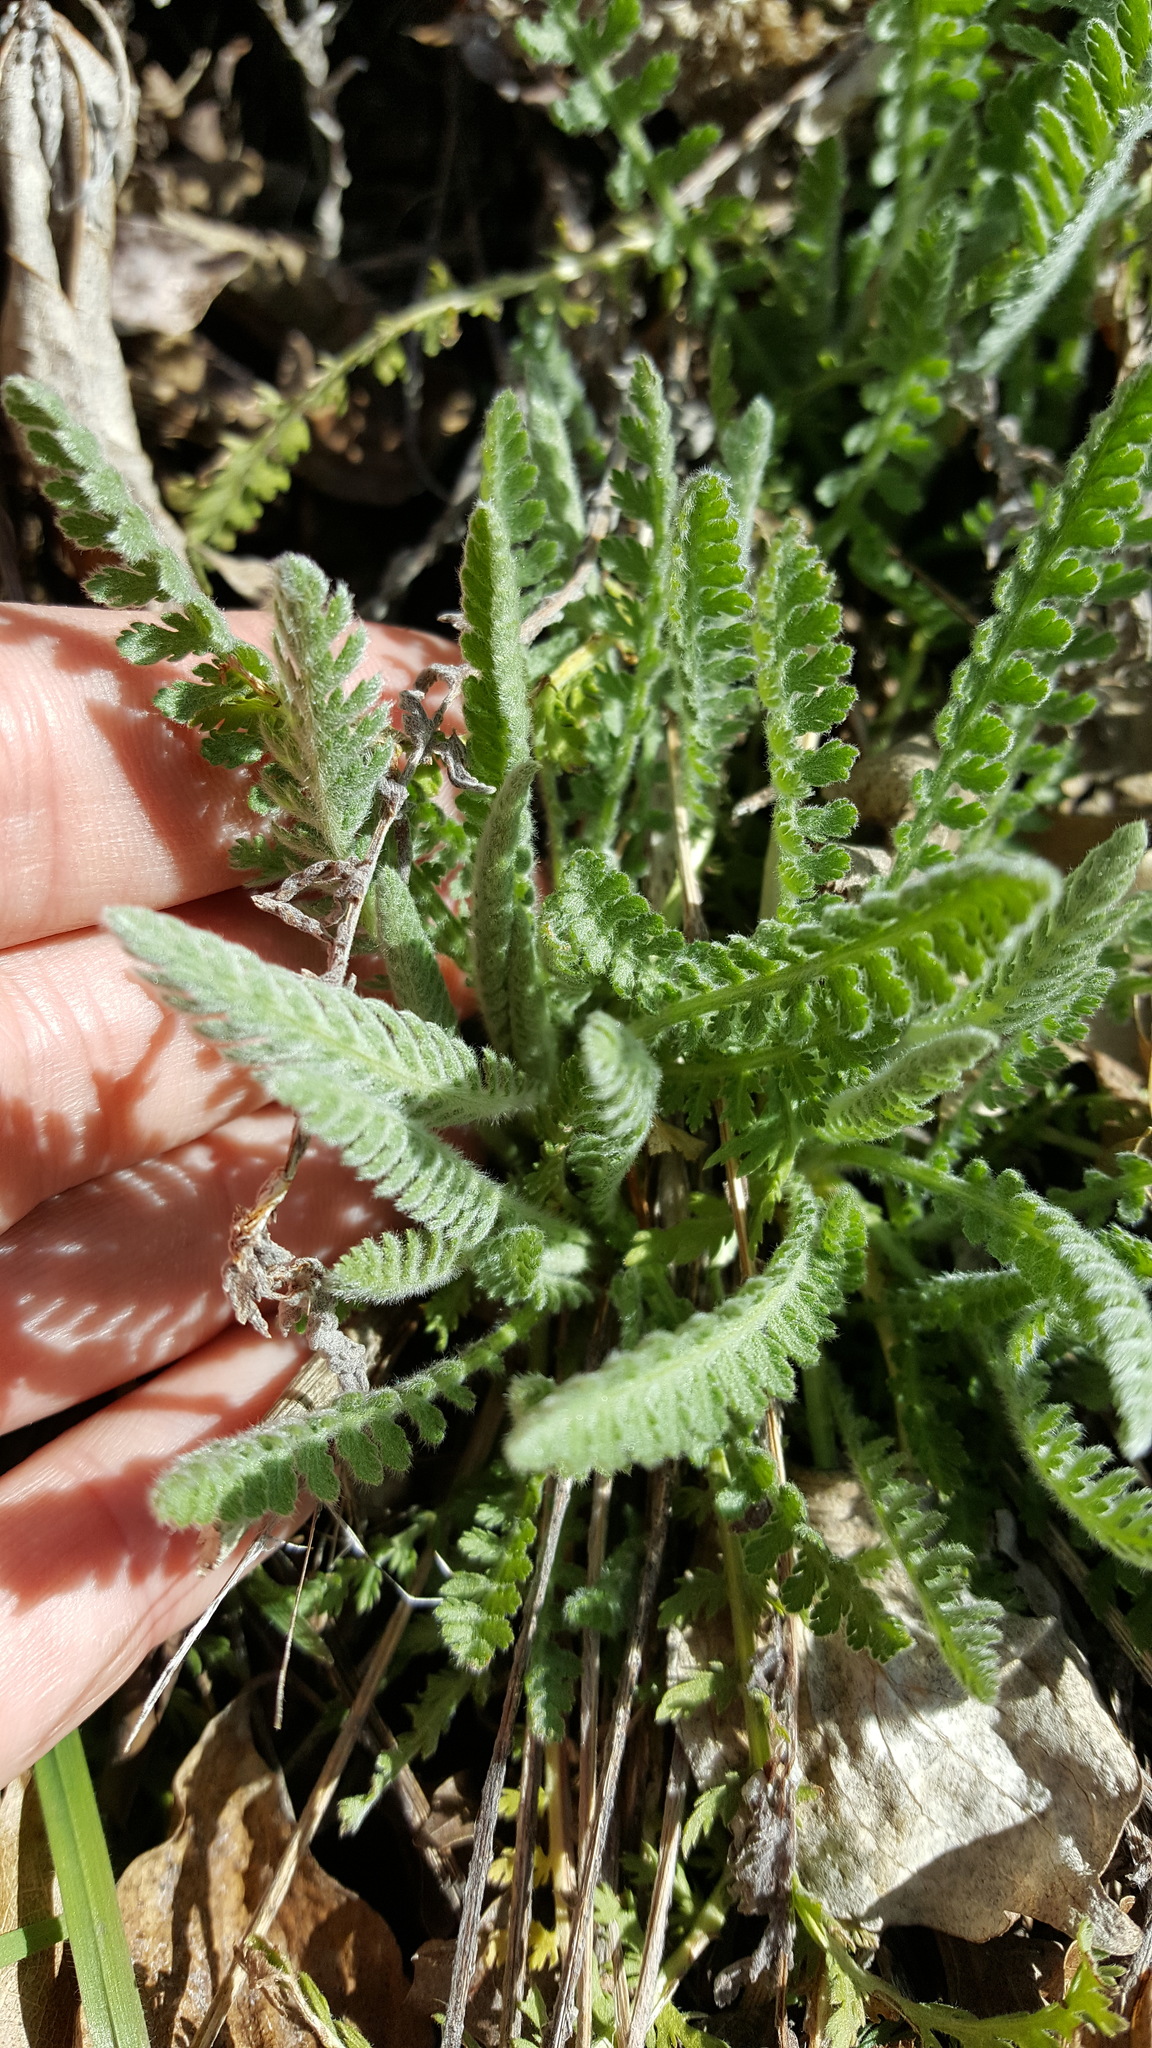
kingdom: Plantae
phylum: Tracheophyta
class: Magnoliopsida
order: Asterales
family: Asteraceae
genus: Achillea
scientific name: Achillea filipendulina
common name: Fernleaf yarrow
